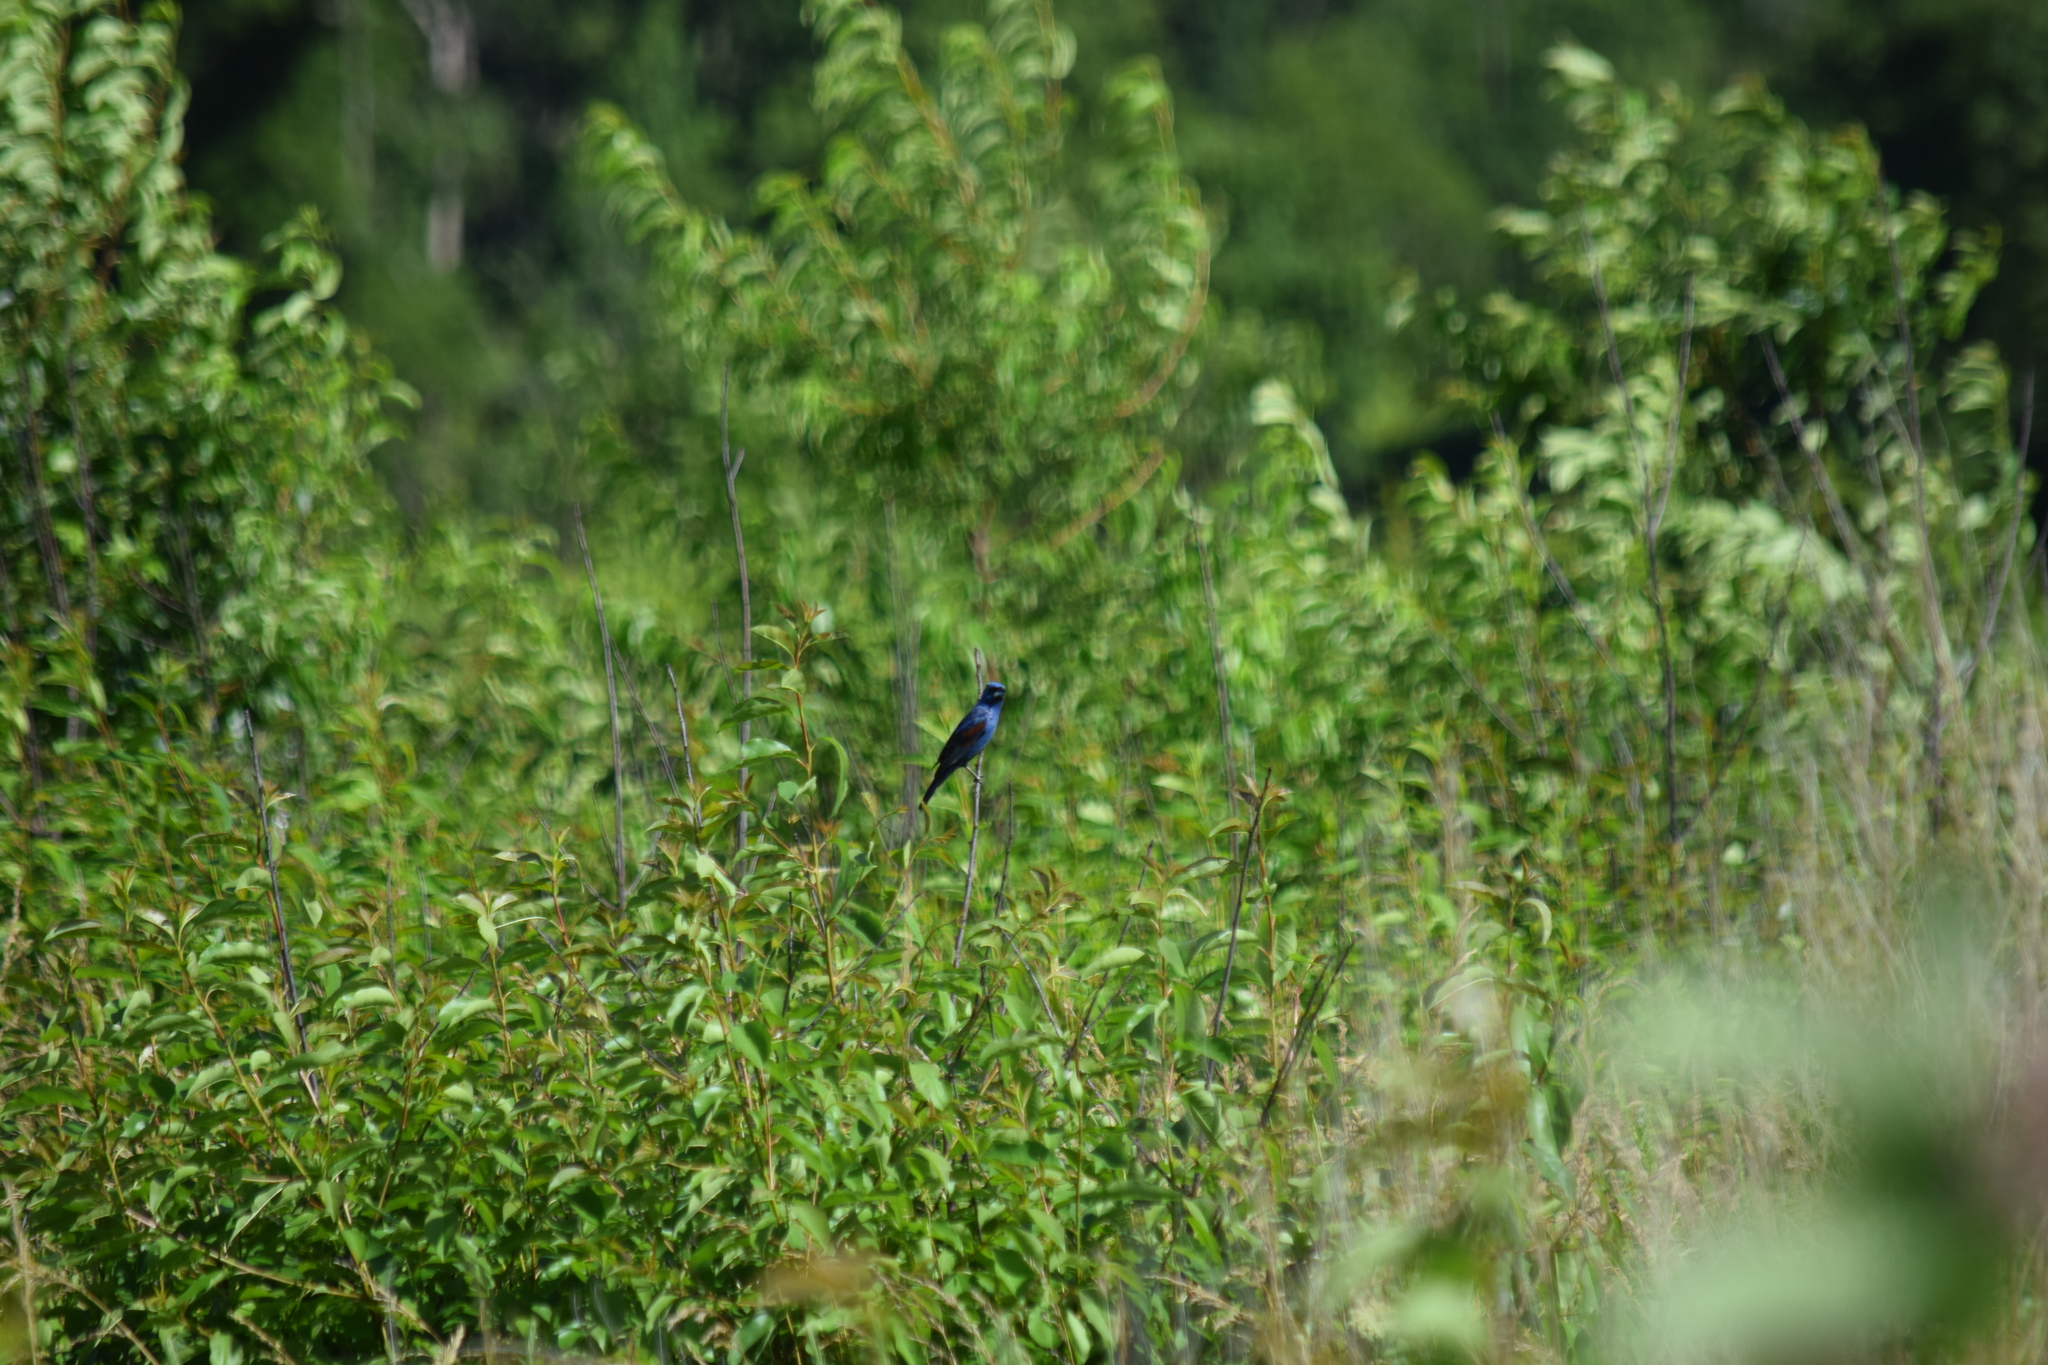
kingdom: Animalia
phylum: Chordata
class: Aves
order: Passeriformes
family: Cardinalidae
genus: Passerina
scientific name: Passerina caerulea
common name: Blue grosbeak
